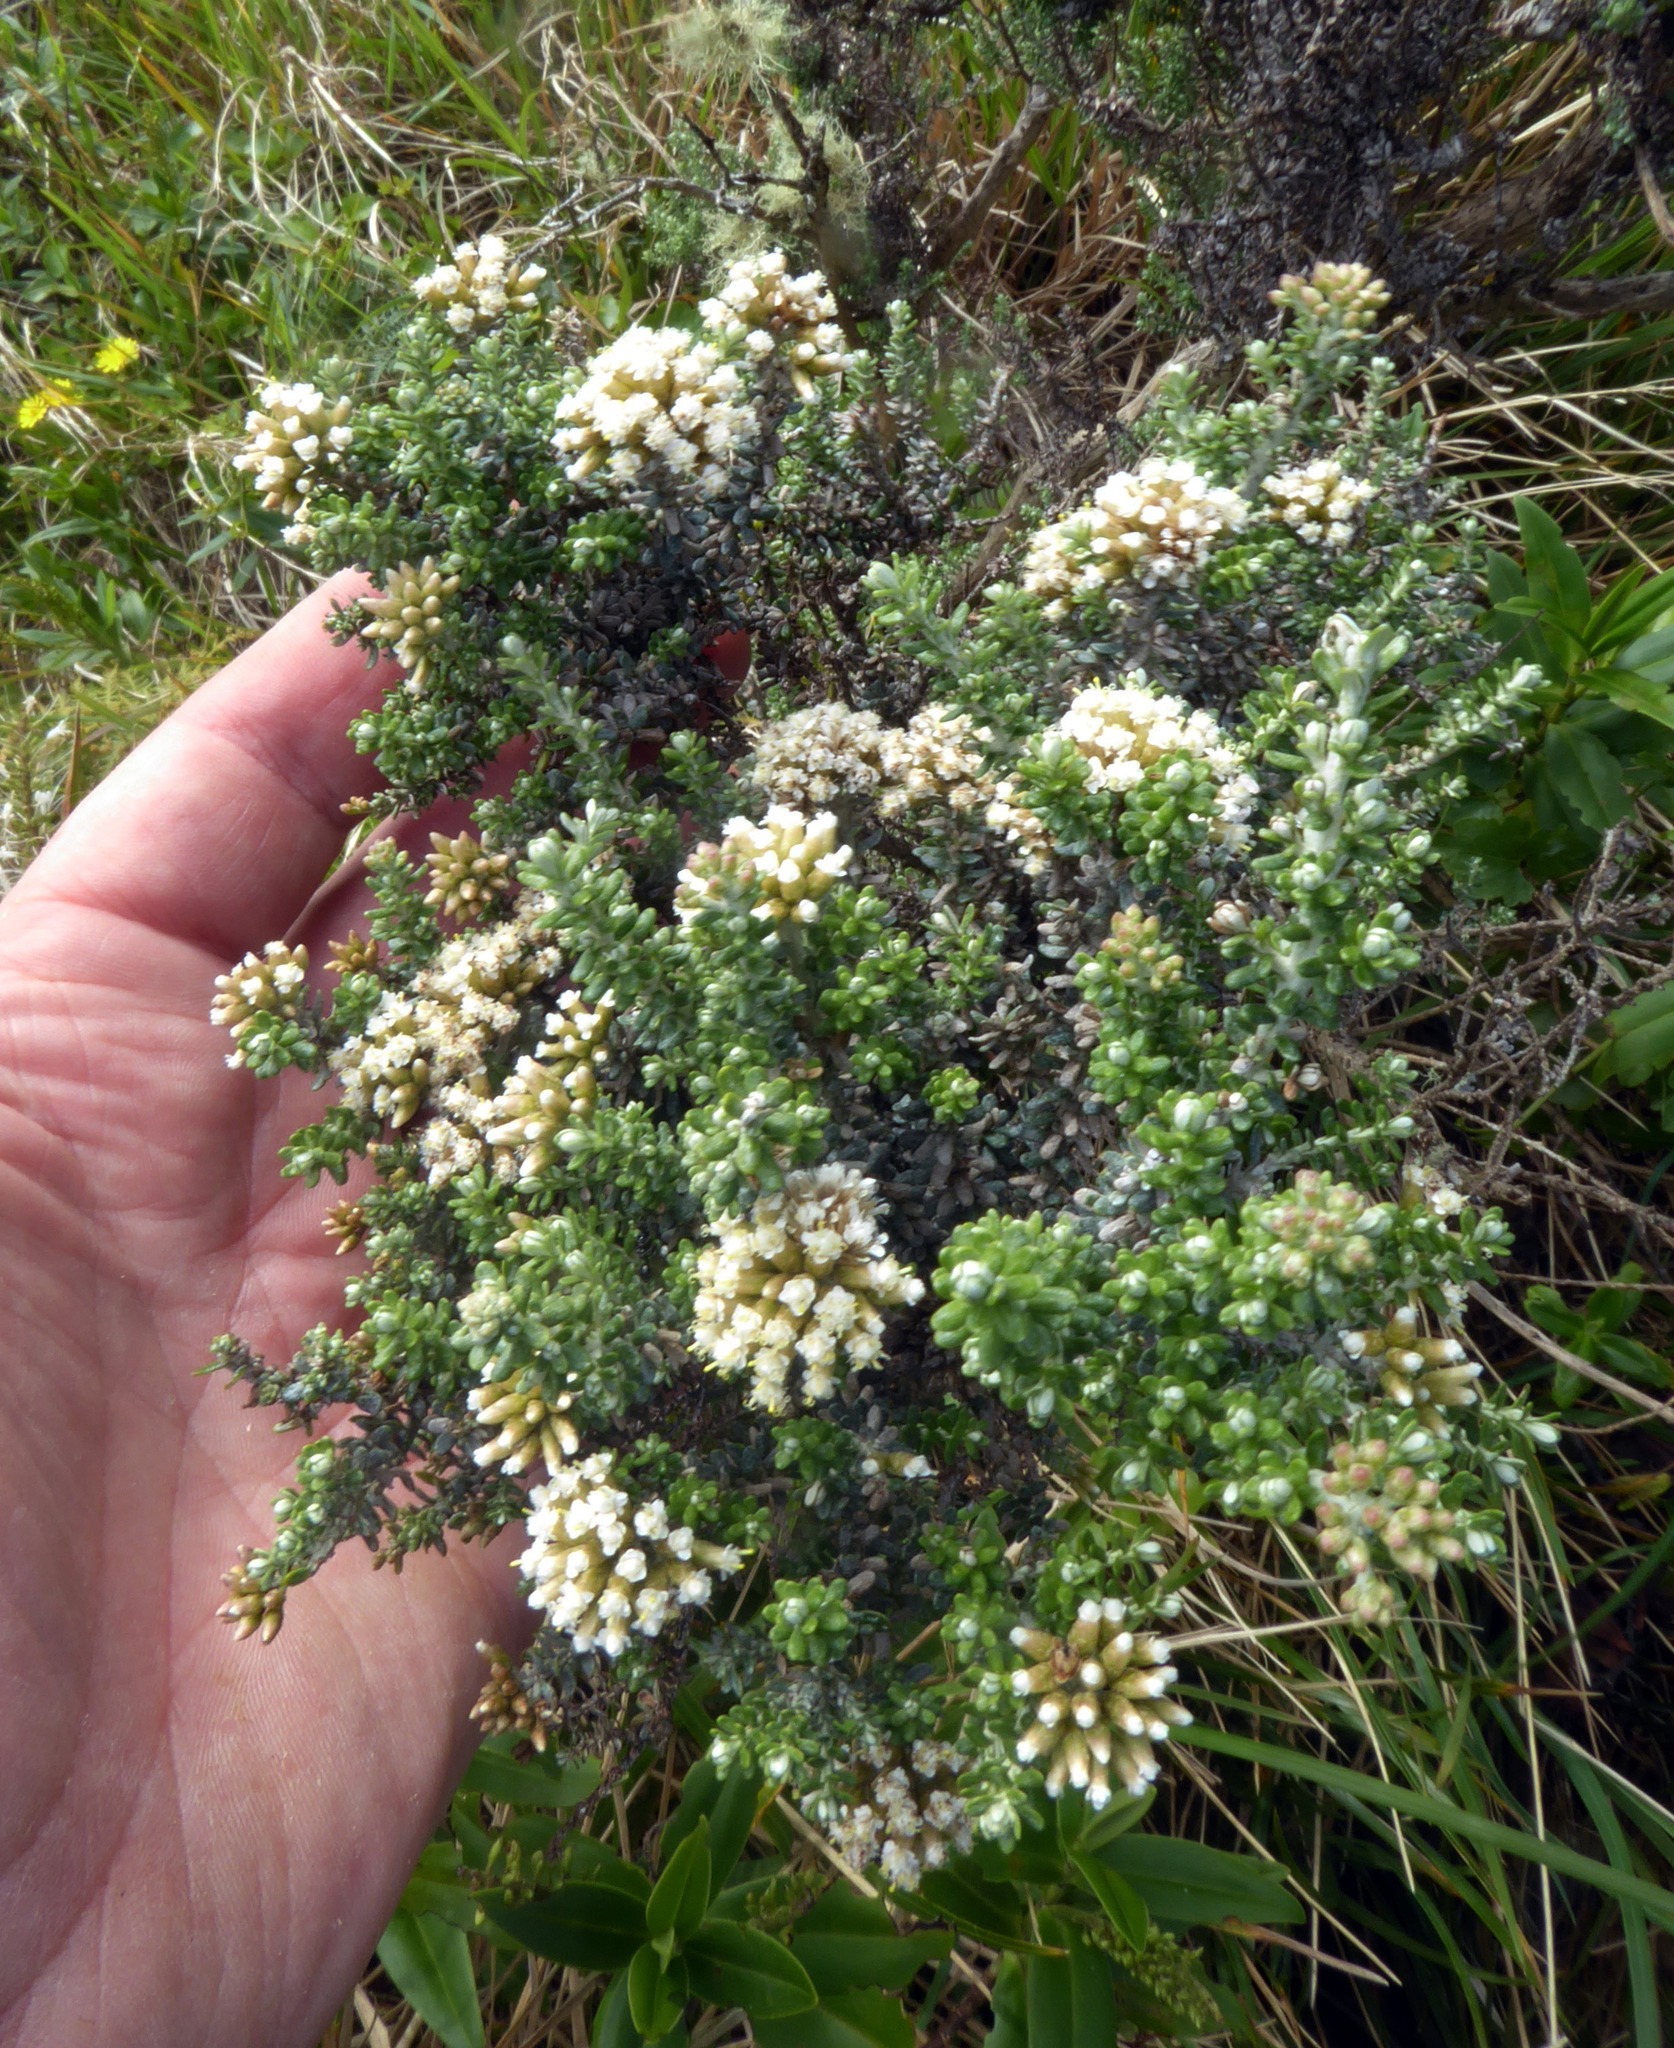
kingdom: Plantae
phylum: Tracheophyta
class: Magnoliopsida
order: Asterales
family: Asteraceae
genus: Ozothamnus
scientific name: Ozothamnus leptophyllus
